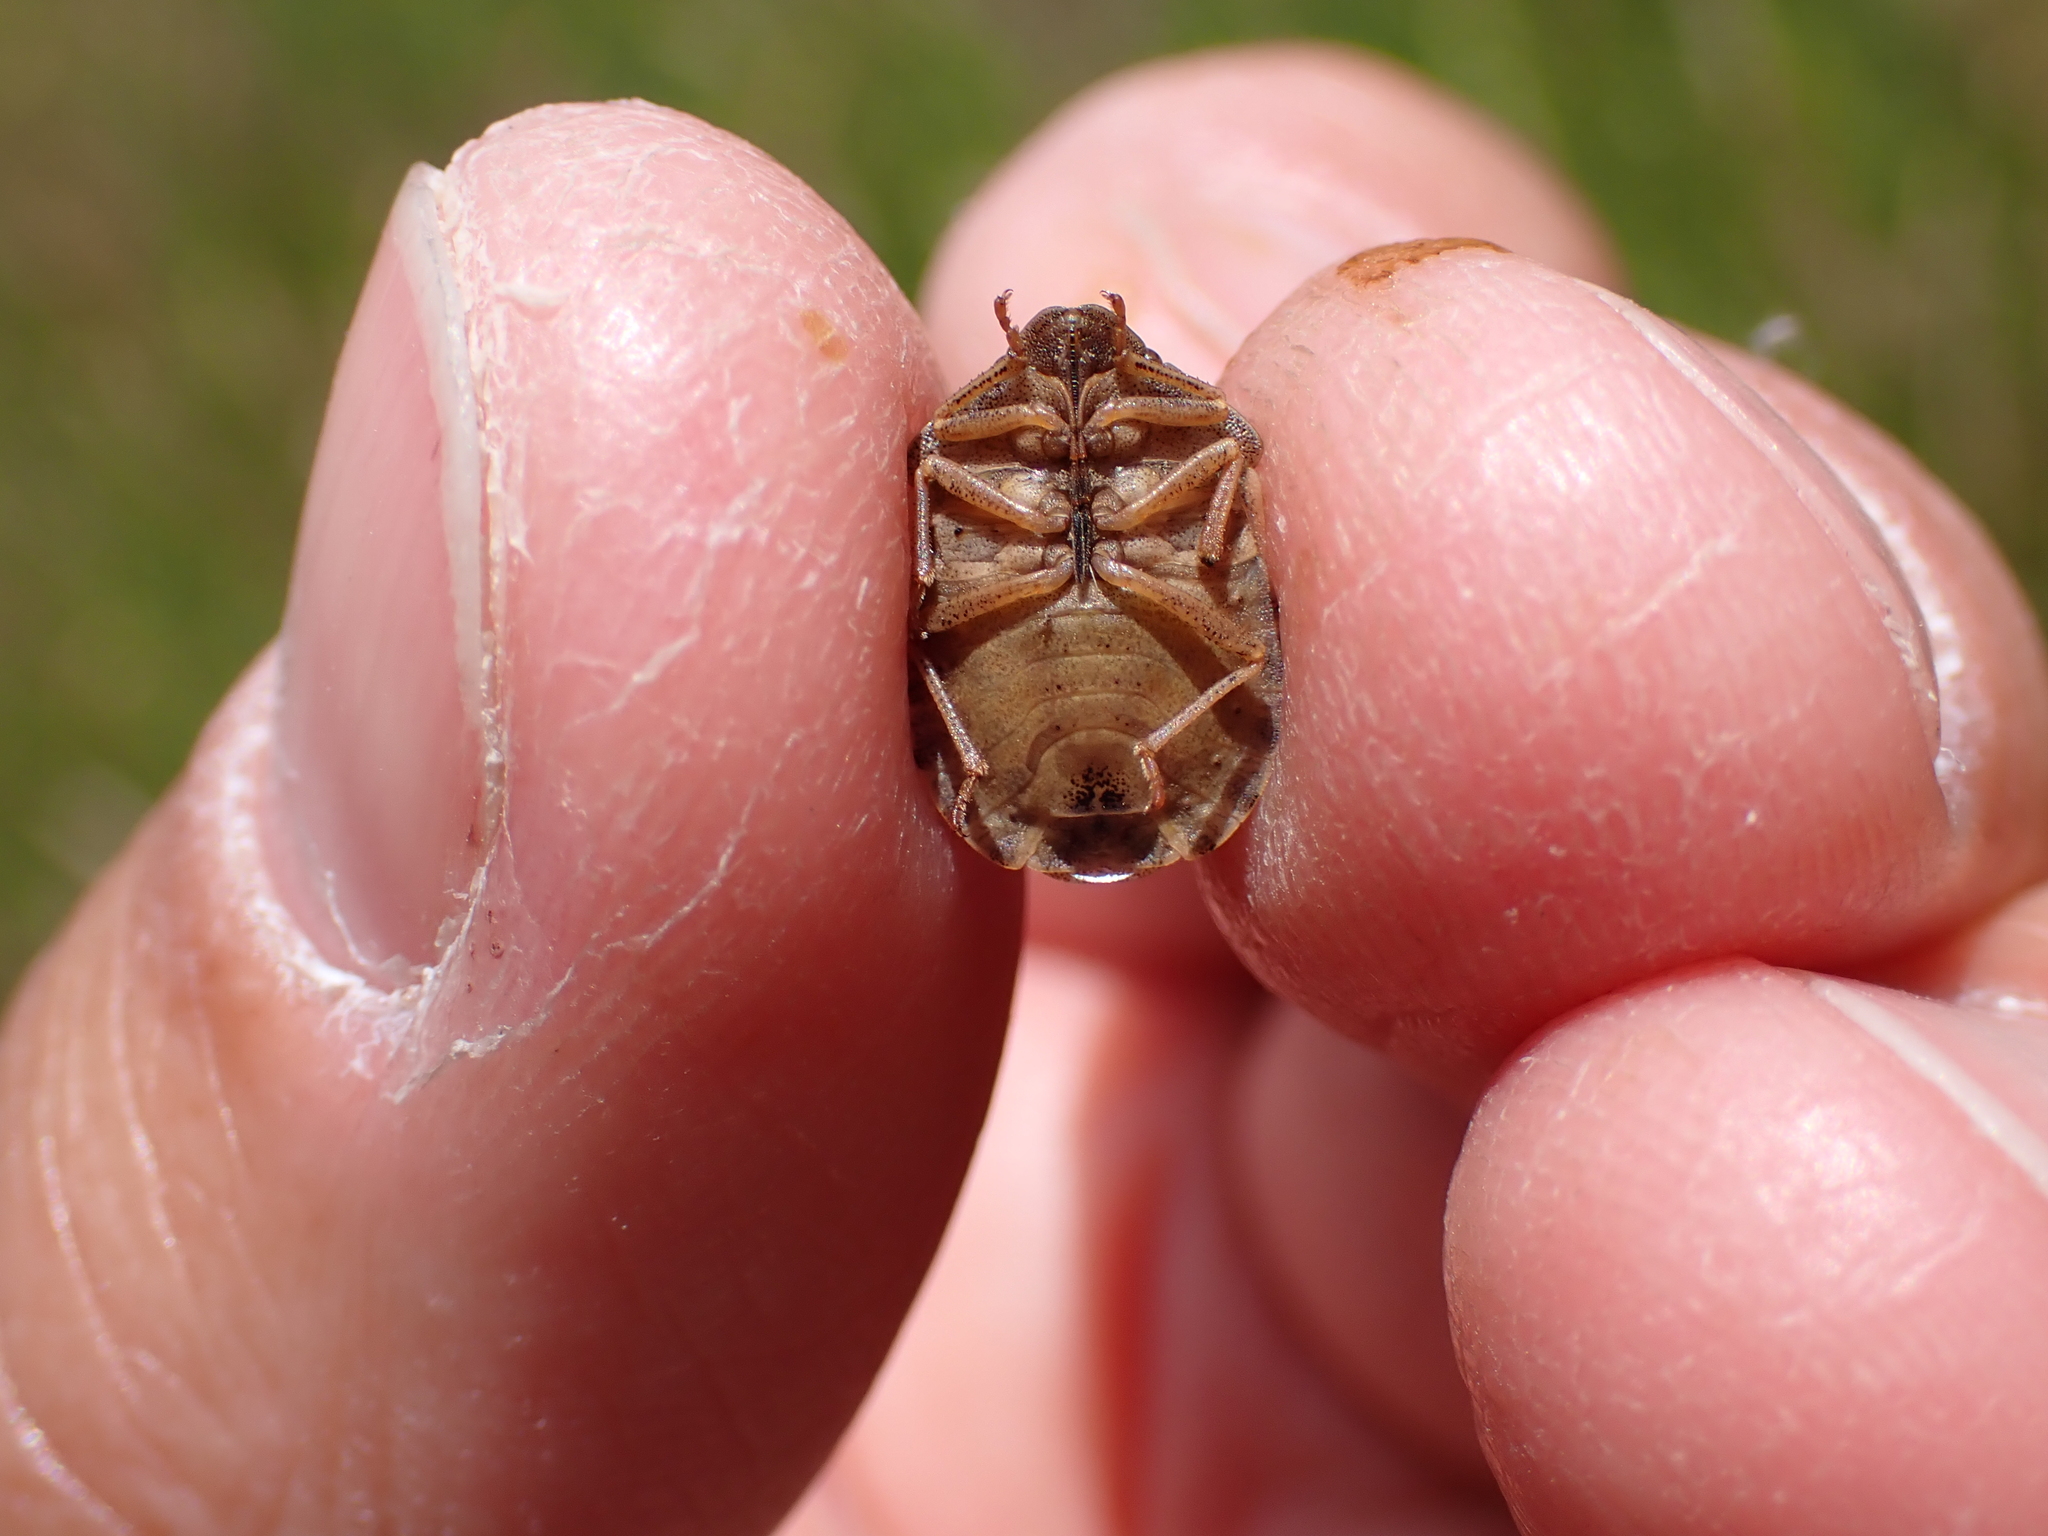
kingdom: Animalia
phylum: Arthropoda
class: Insecta
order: Hemiptera
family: Scutelleridae
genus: Eurygaster
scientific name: Eurygaster testudinaria
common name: Tortoise bug
